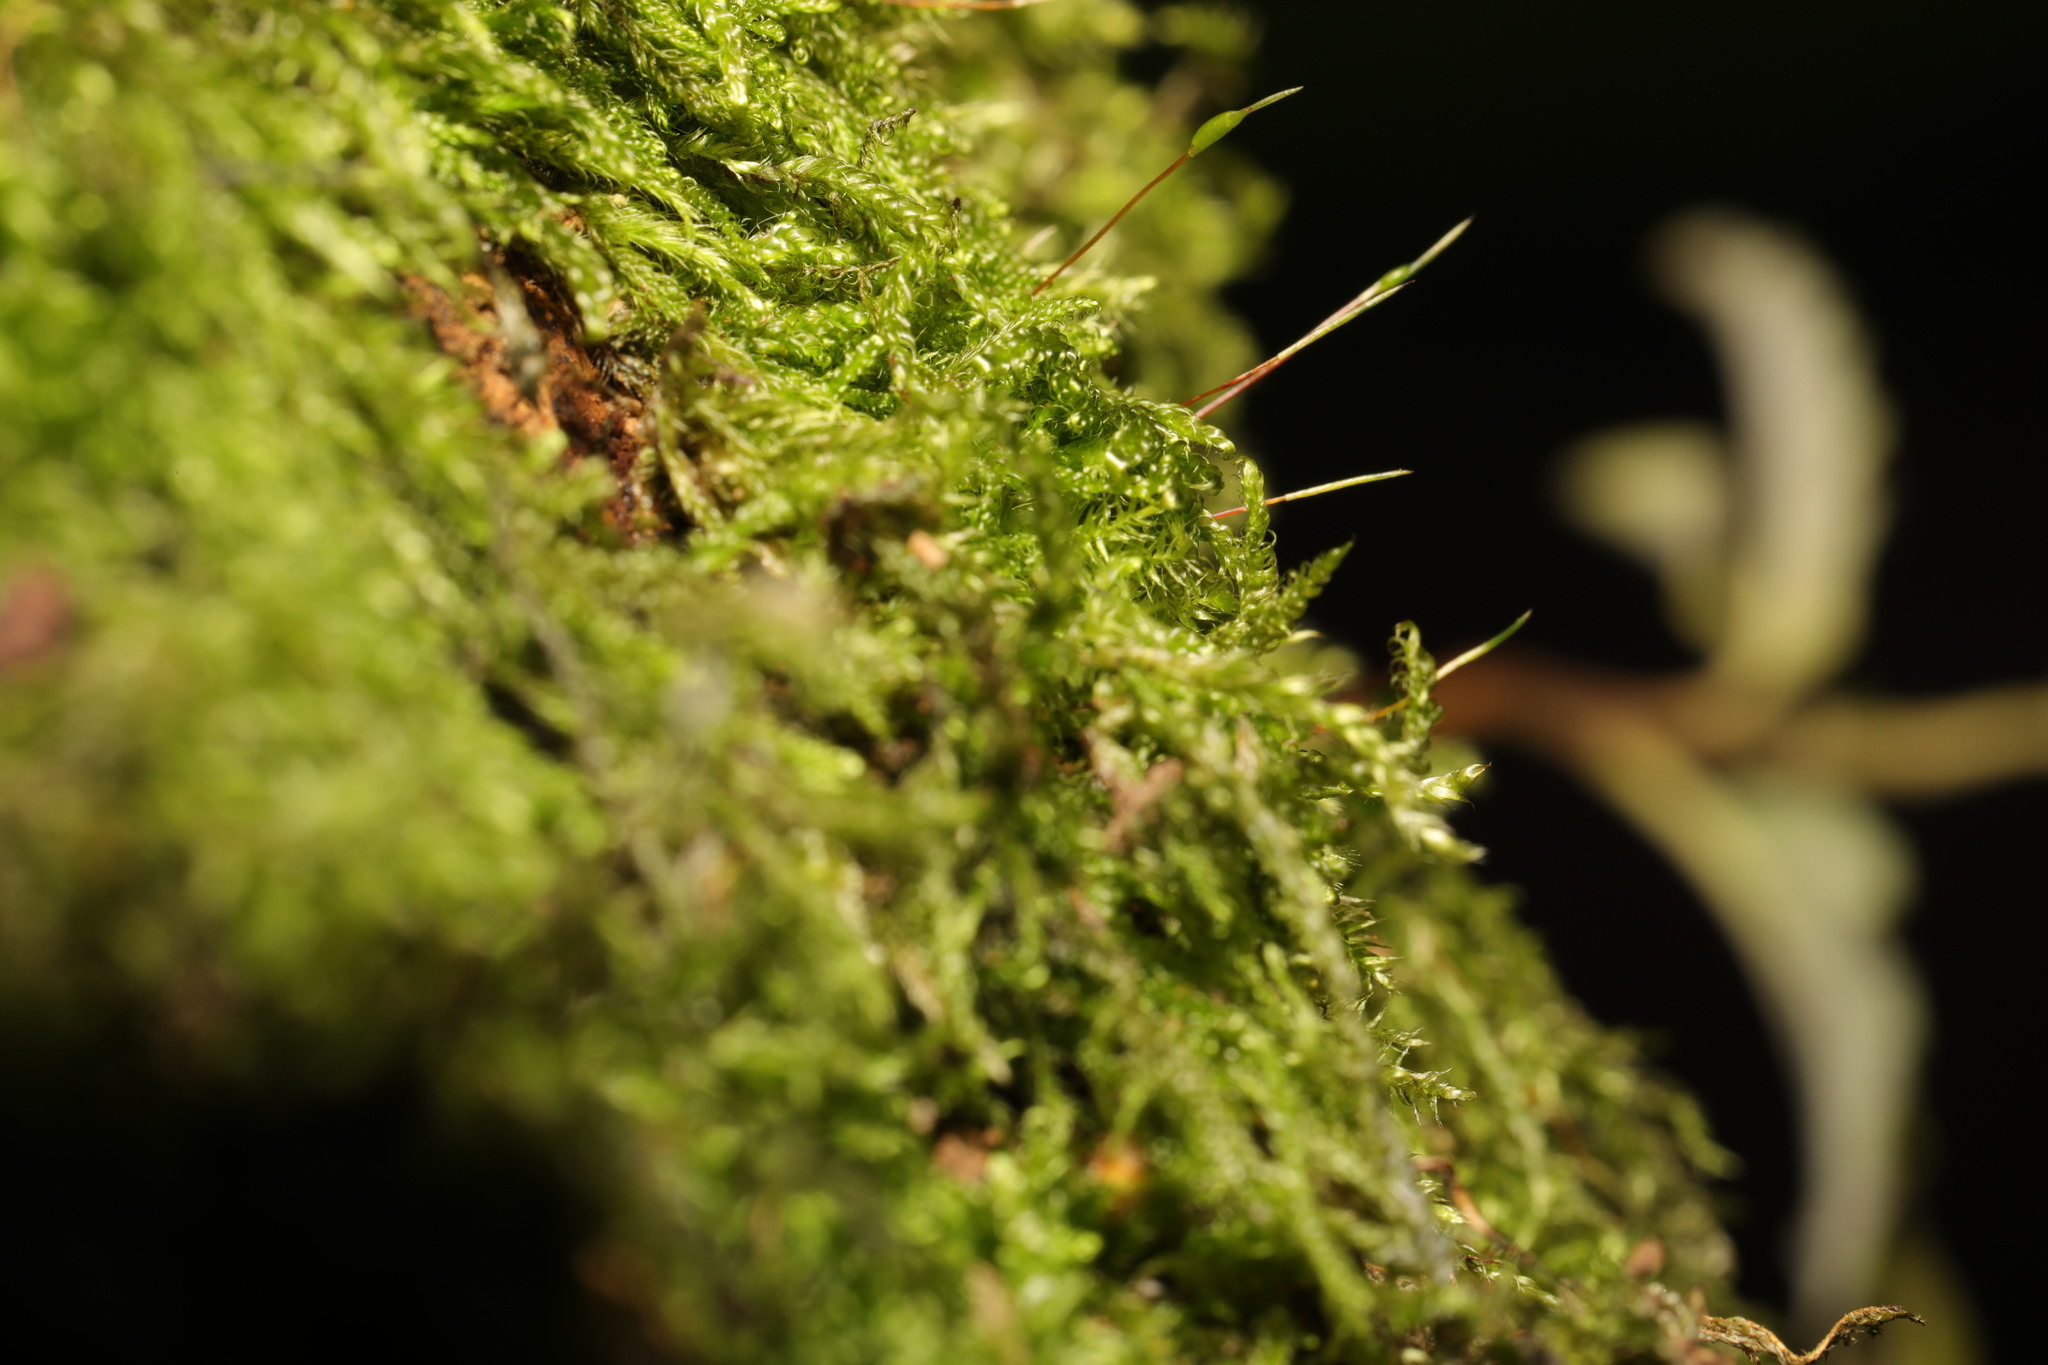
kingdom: Plantae
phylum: Bryophyta
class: Bryopsida
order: Hypnales
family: Hypnaceae
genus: Hypnum
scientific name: Hypnum cupressiforme
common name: Cypress-leaved plait-moss
